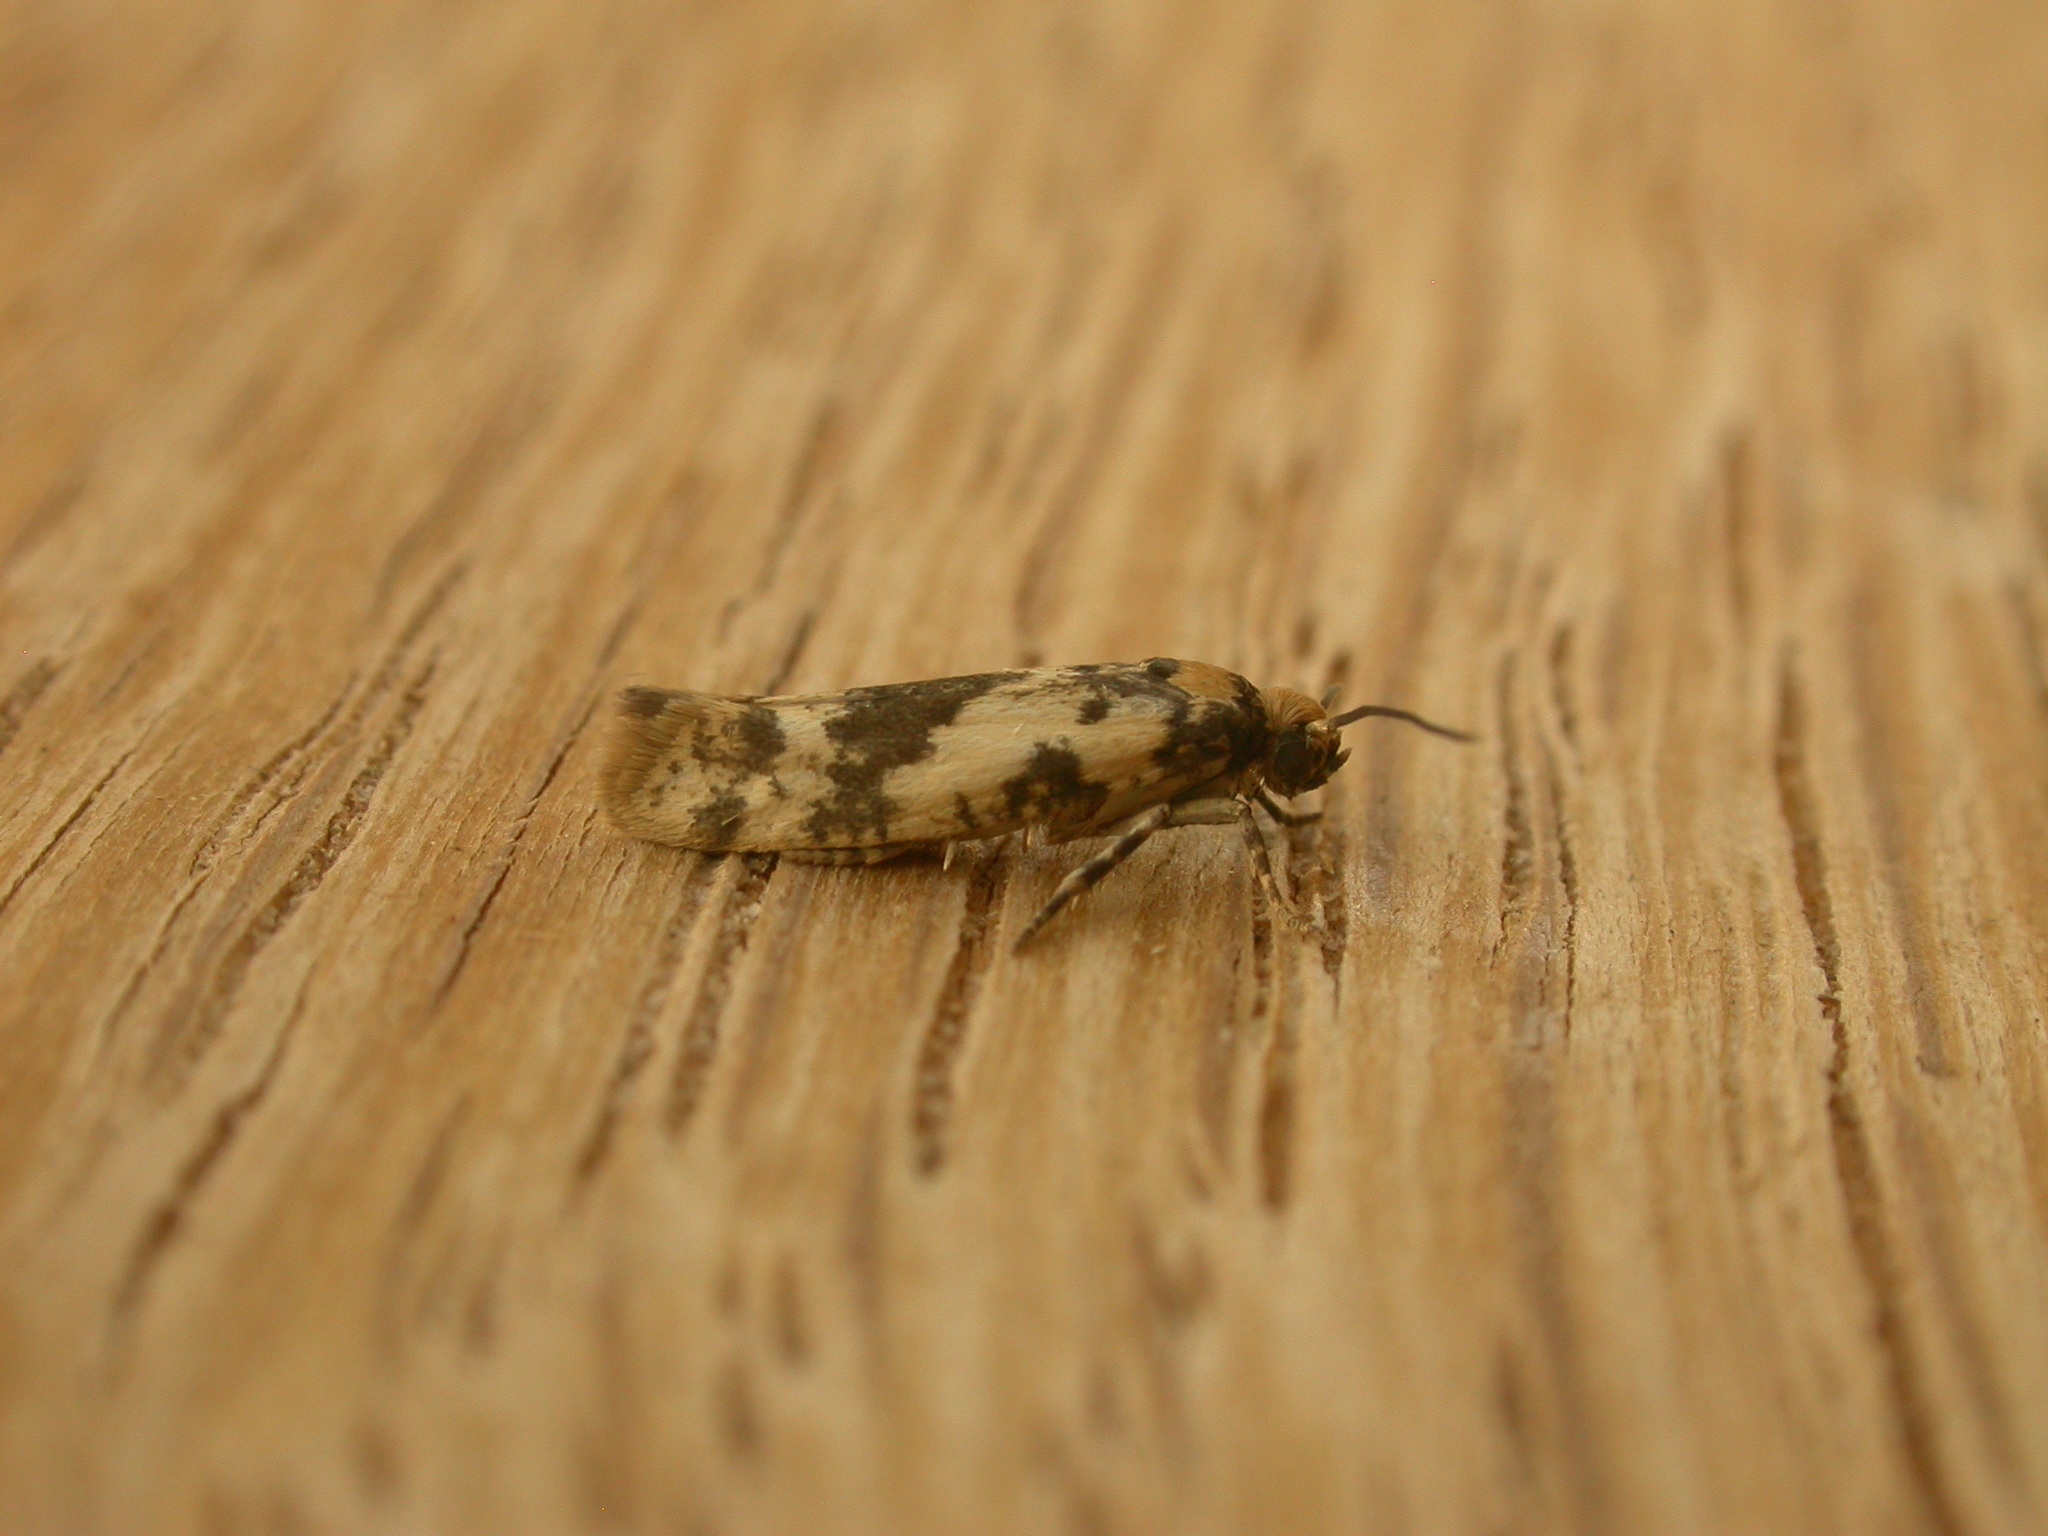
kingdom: Animalia
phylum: Arthropoda
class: Insecta
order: Lepidoptera
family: Praydidae
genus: Prays
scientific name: Prays parilis
